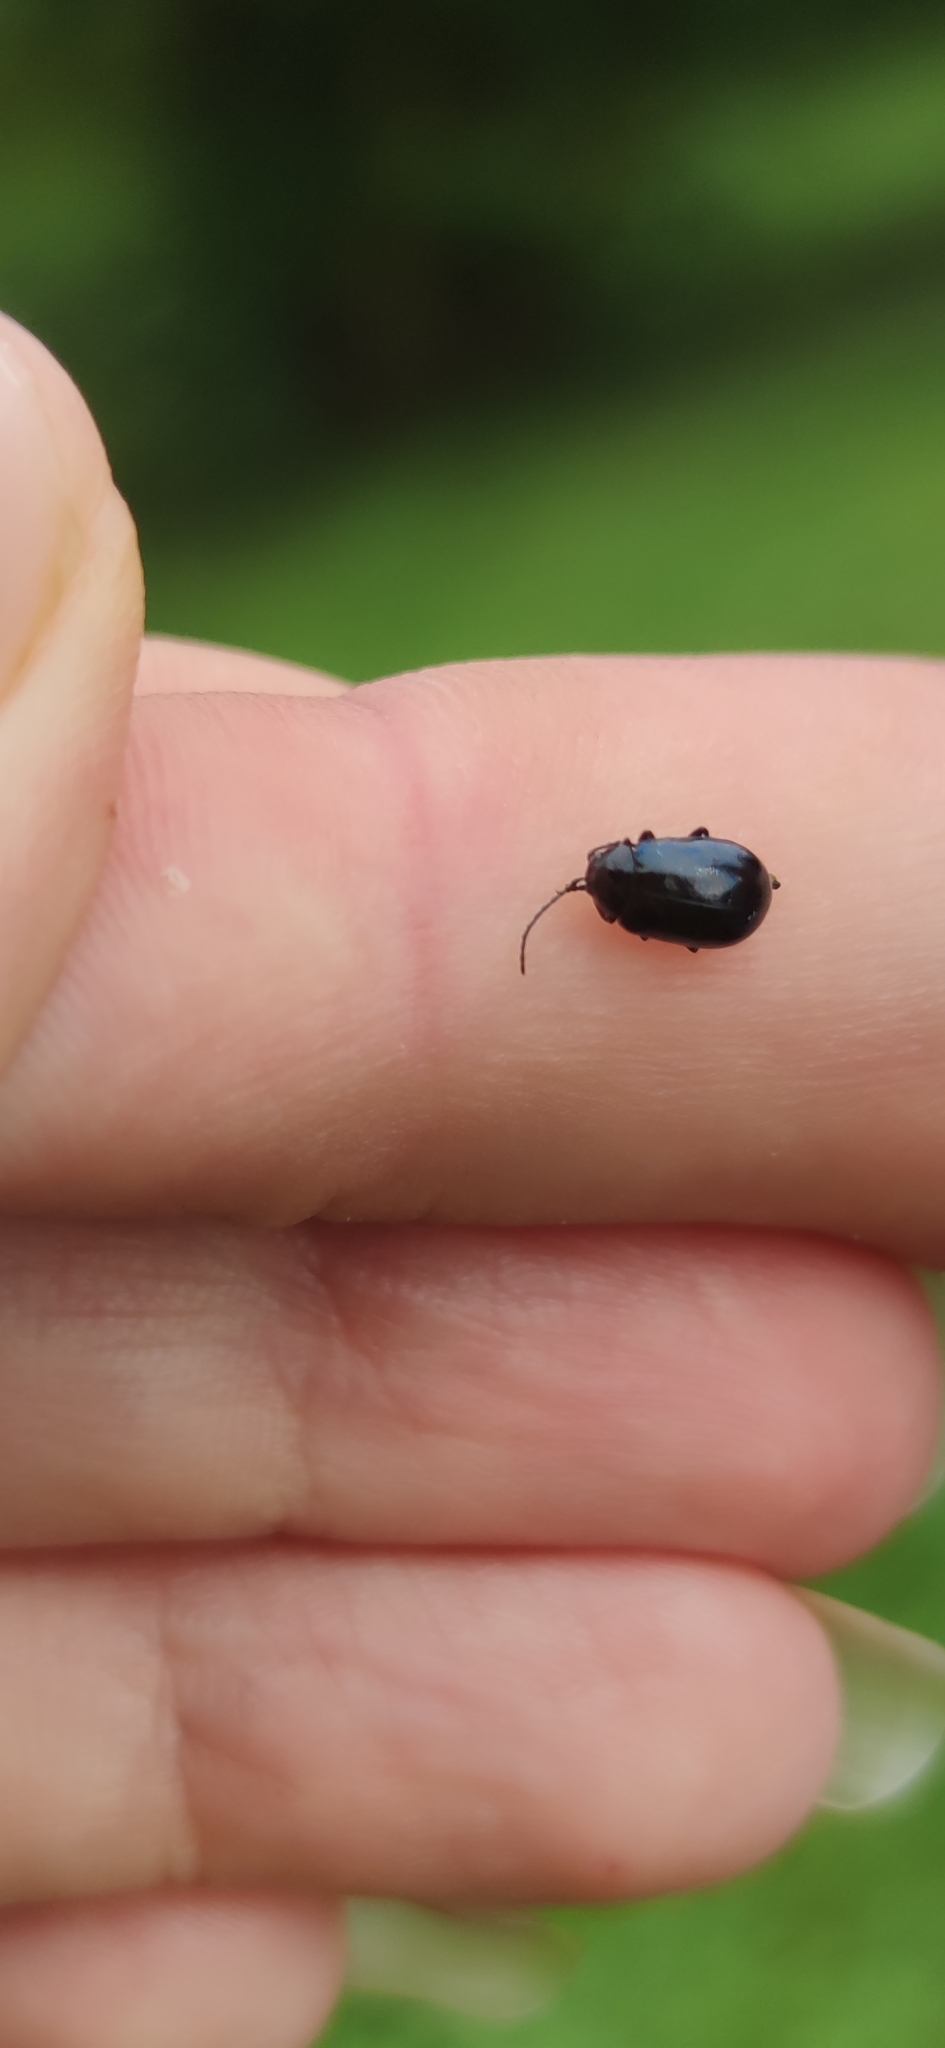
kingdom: Animalia
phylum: Arthropoda
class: Insecta
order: Coleoptera
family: Chrysomelidae
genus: Agelastica
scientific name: Agelastica alni
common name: Alder leaf beetle
